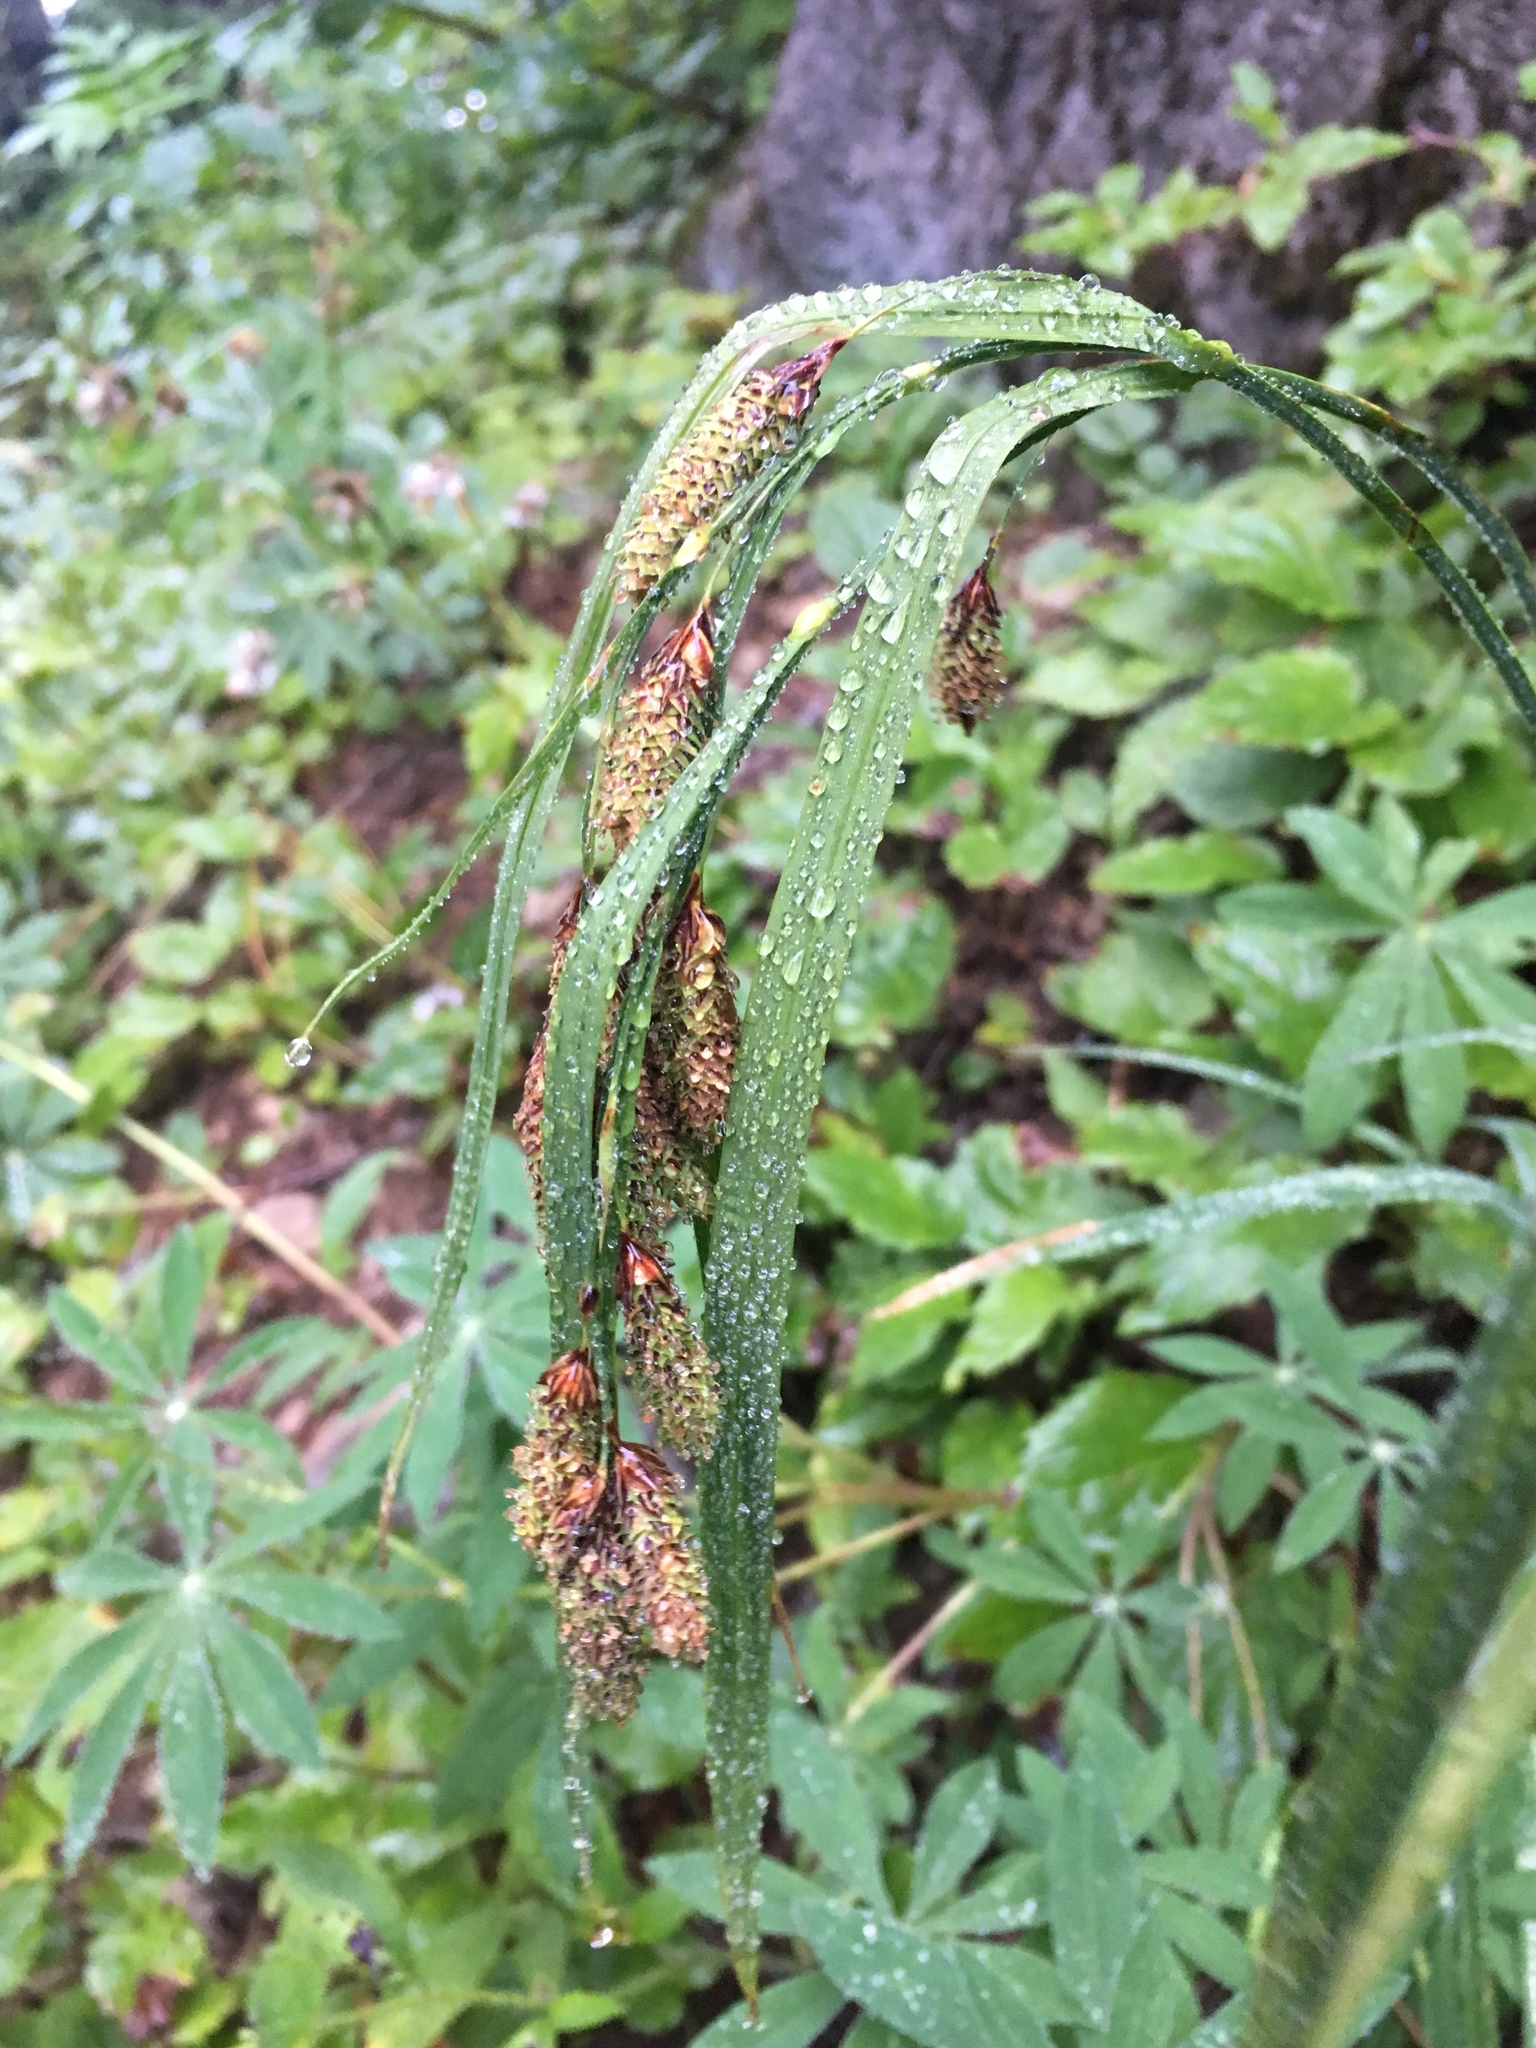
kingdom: Plantae
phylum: Tracheophyta
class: Liliopsida
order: Poales
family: Cyperaceae
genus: Carex
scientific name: Carex mertensii
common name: Mertens' sedge
